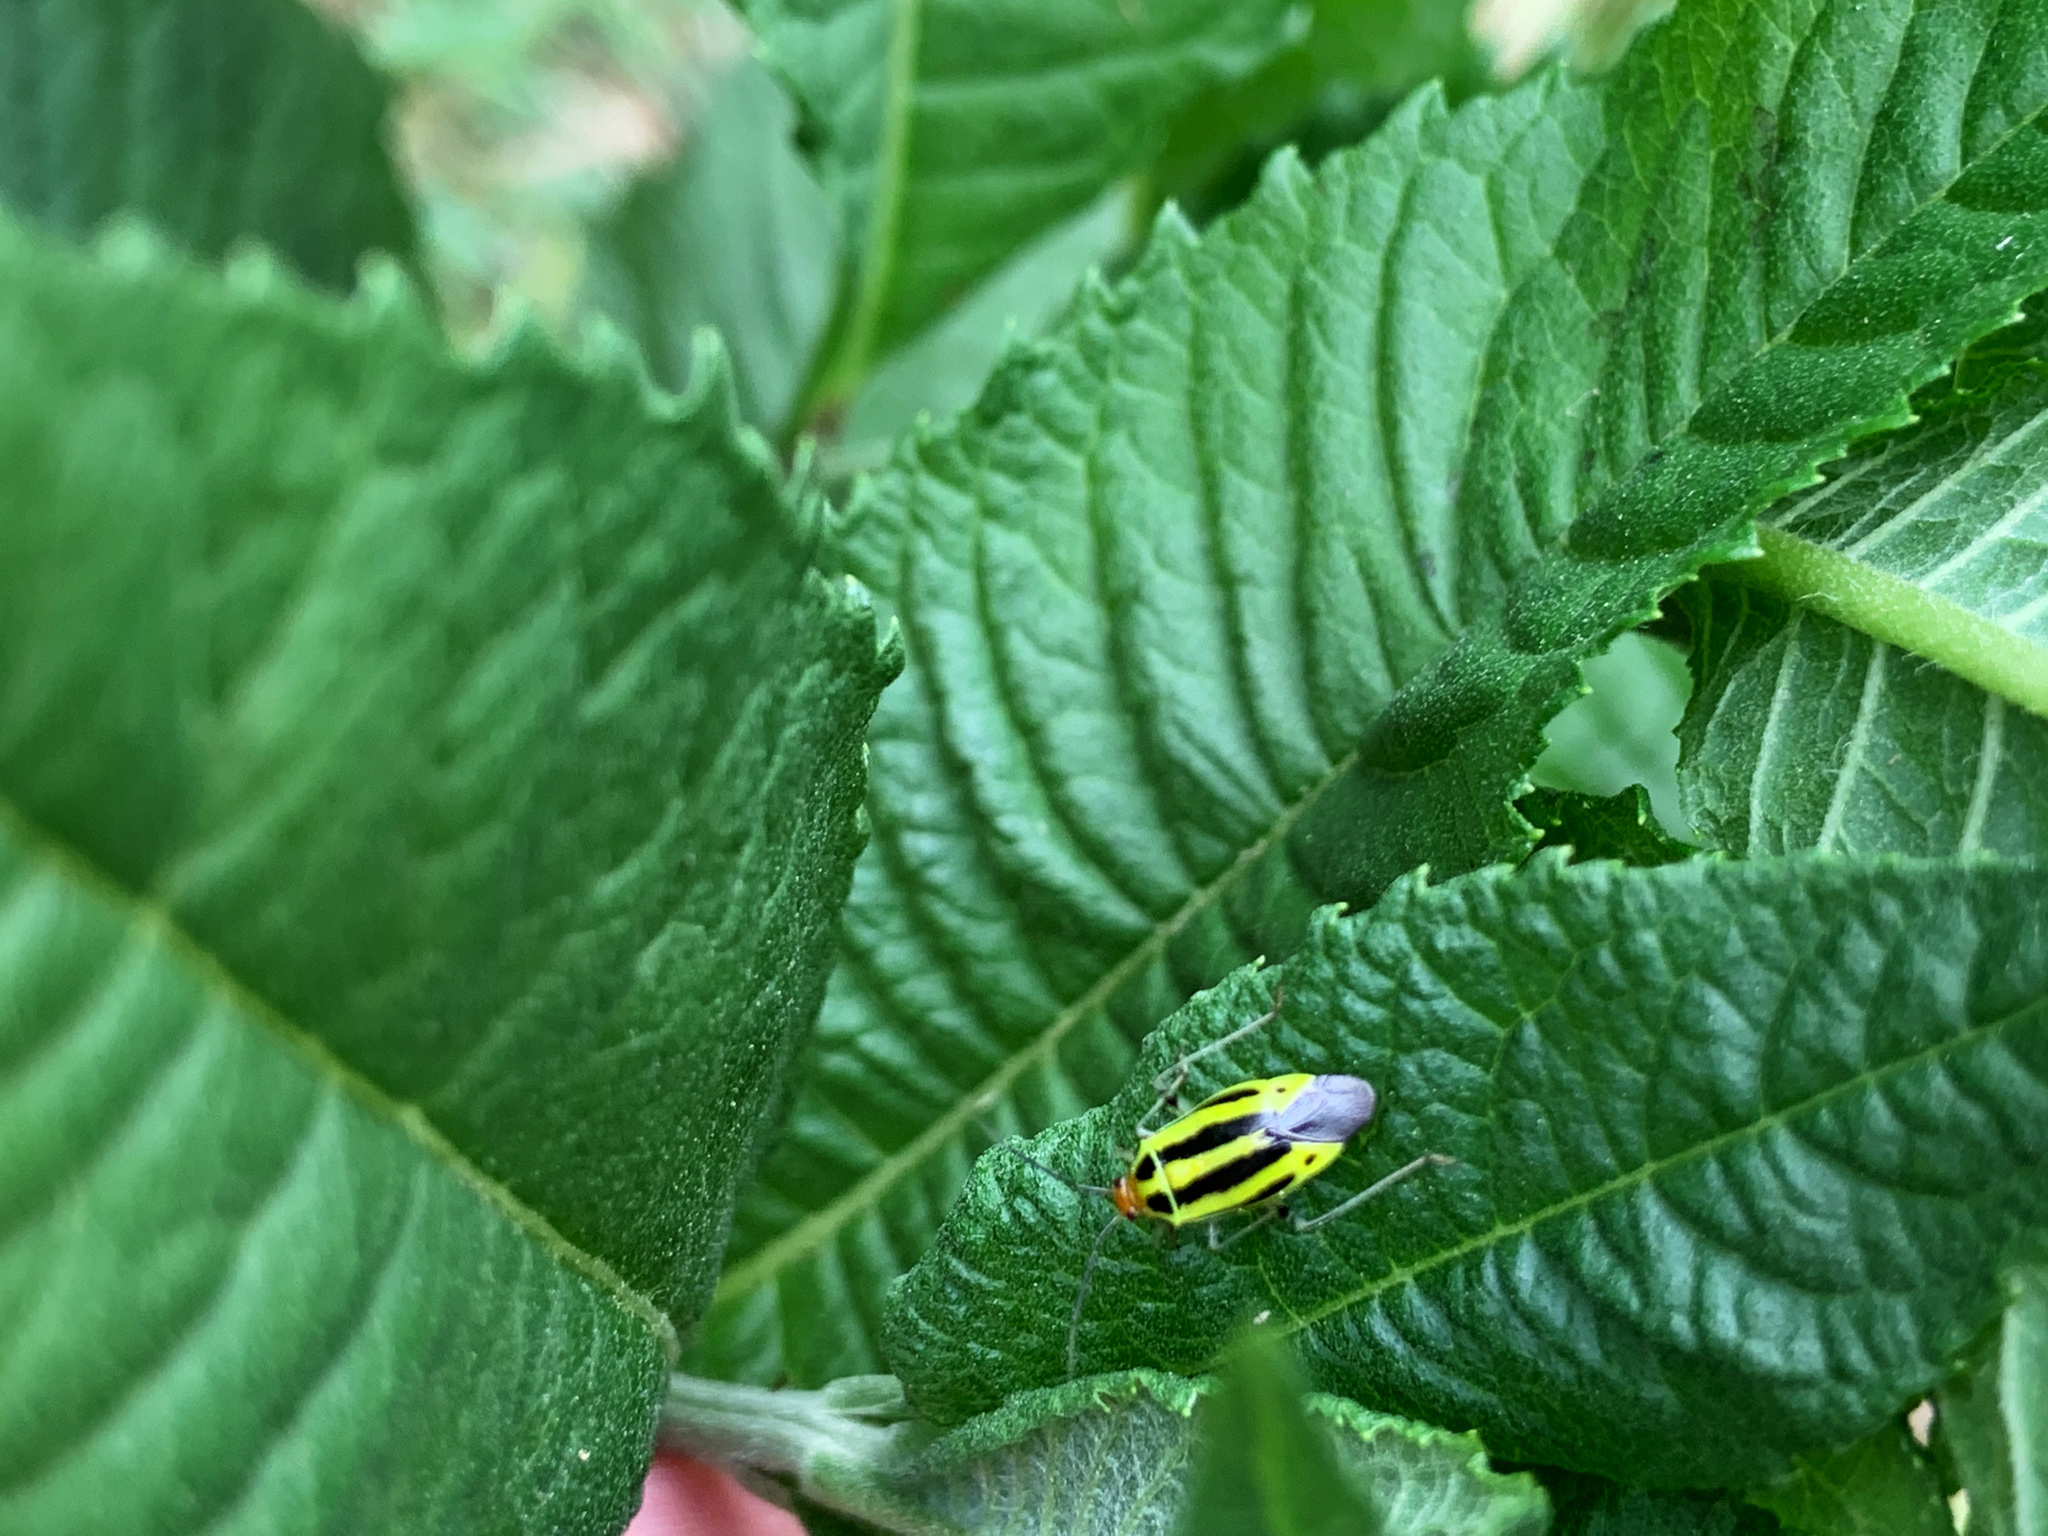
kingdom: Animalia
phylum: Arthropoda
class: Insecta
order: Hemiptera
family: Miridae
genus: Poecilocapsus
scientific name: Poecilocapsus lineatus
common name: Four-lined plant bug
